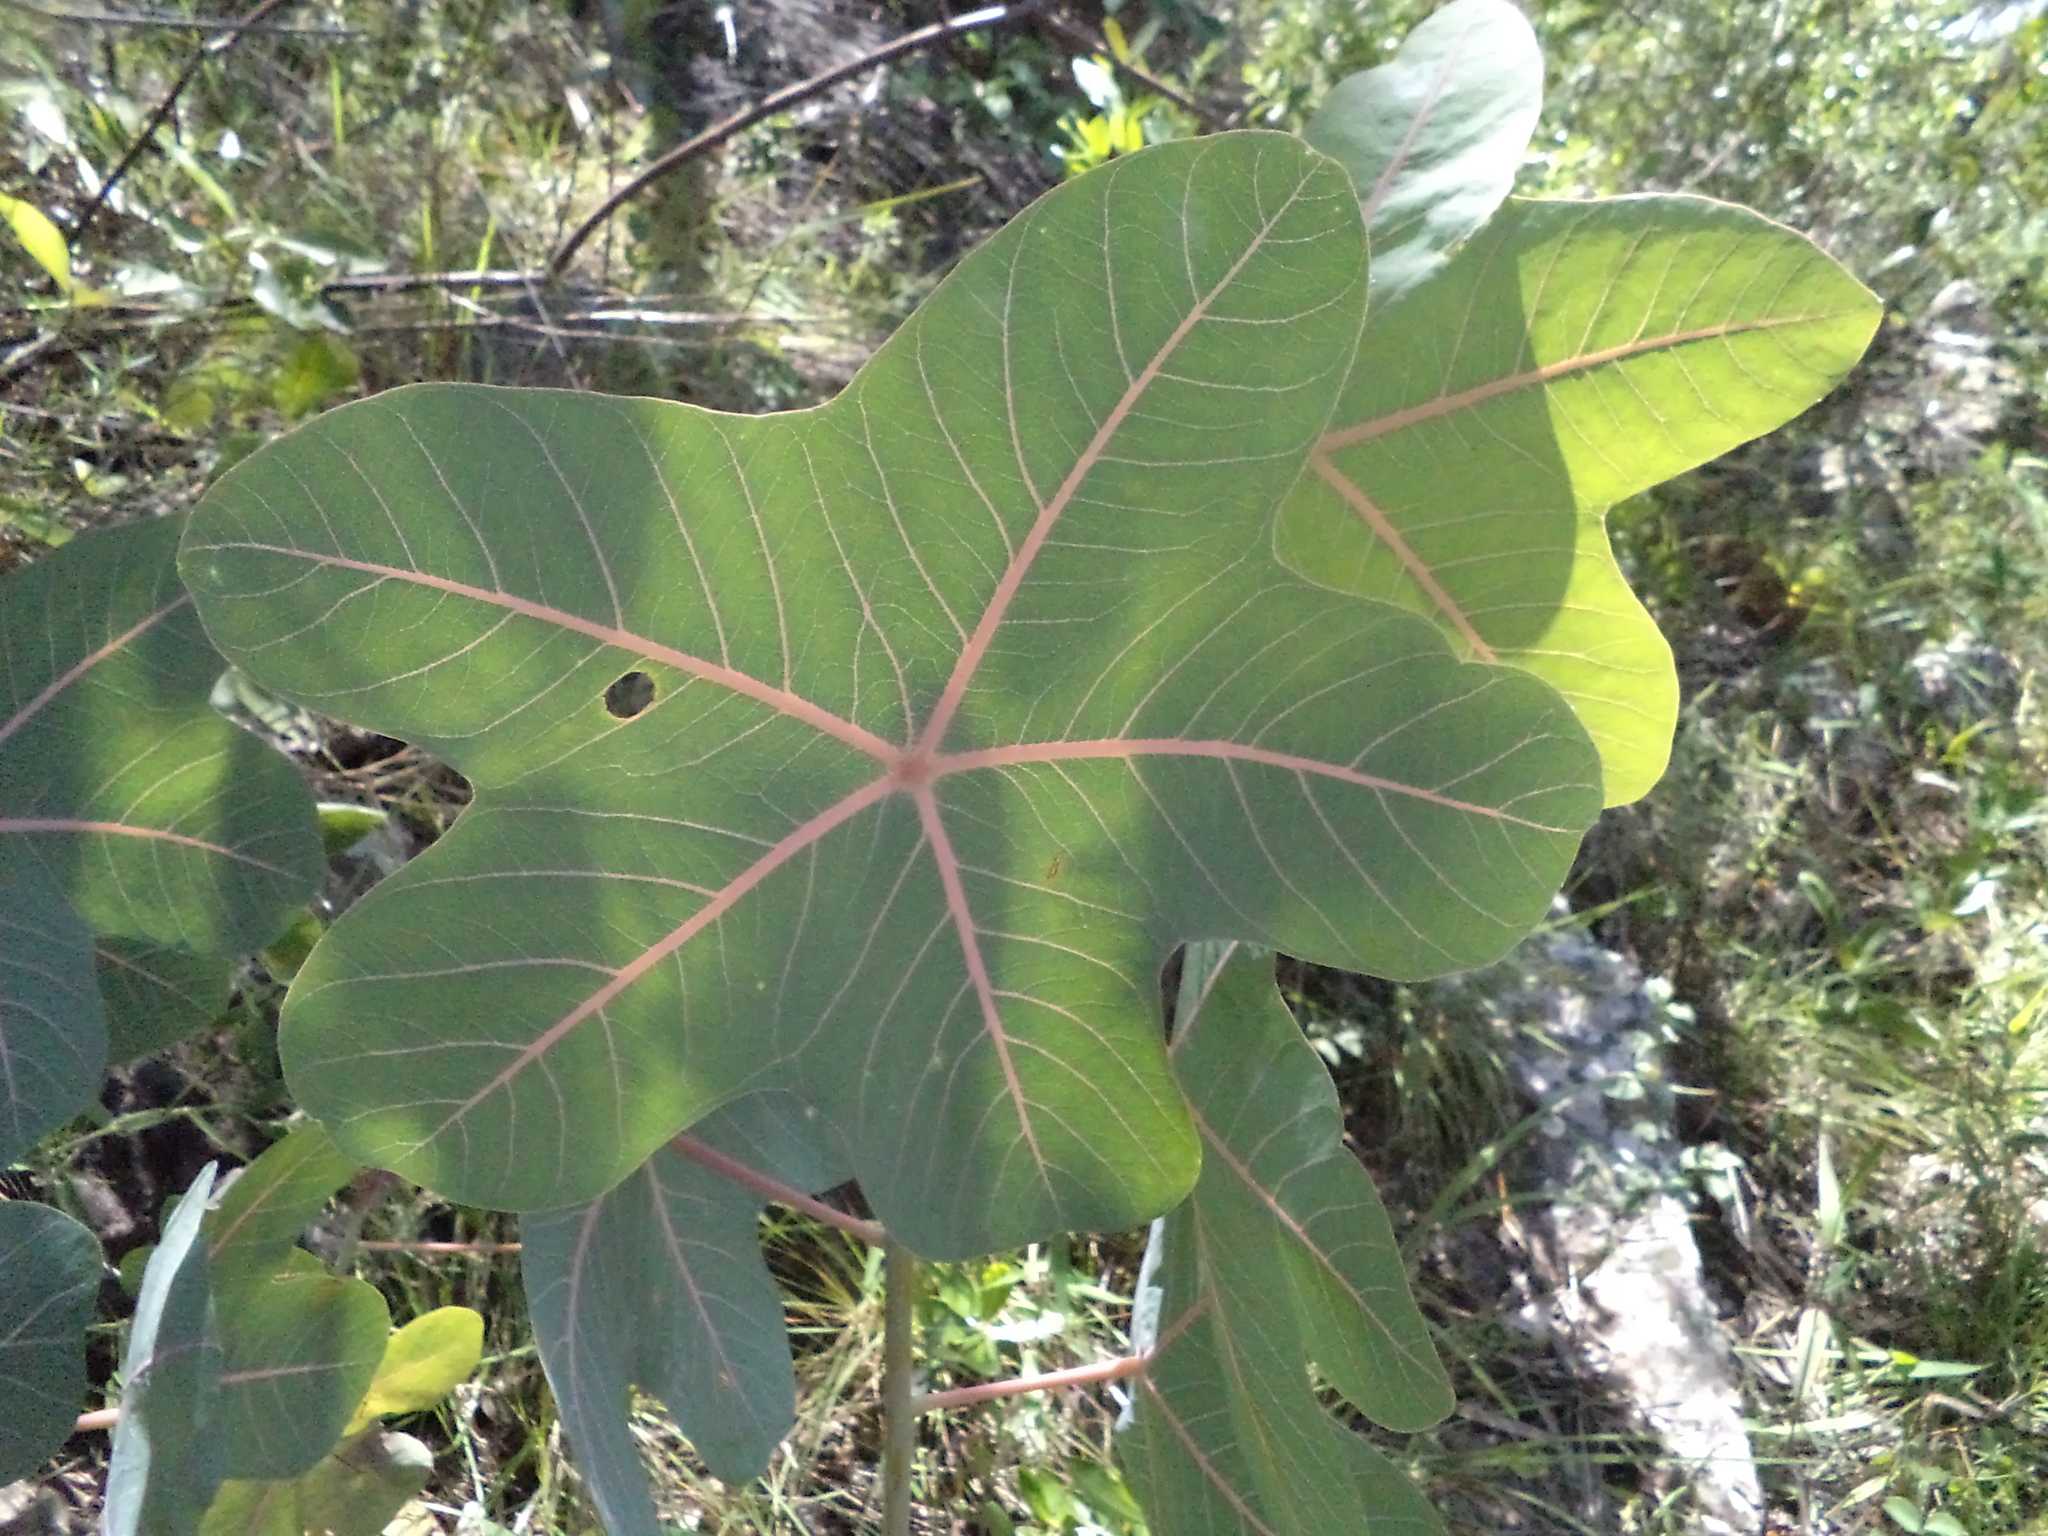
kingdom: Plantae
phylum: Tracheophyta
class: Magnoliopsida
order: Malpighiales
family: Euphorbiaceae
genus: Manihot
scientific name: Manihot peltata
